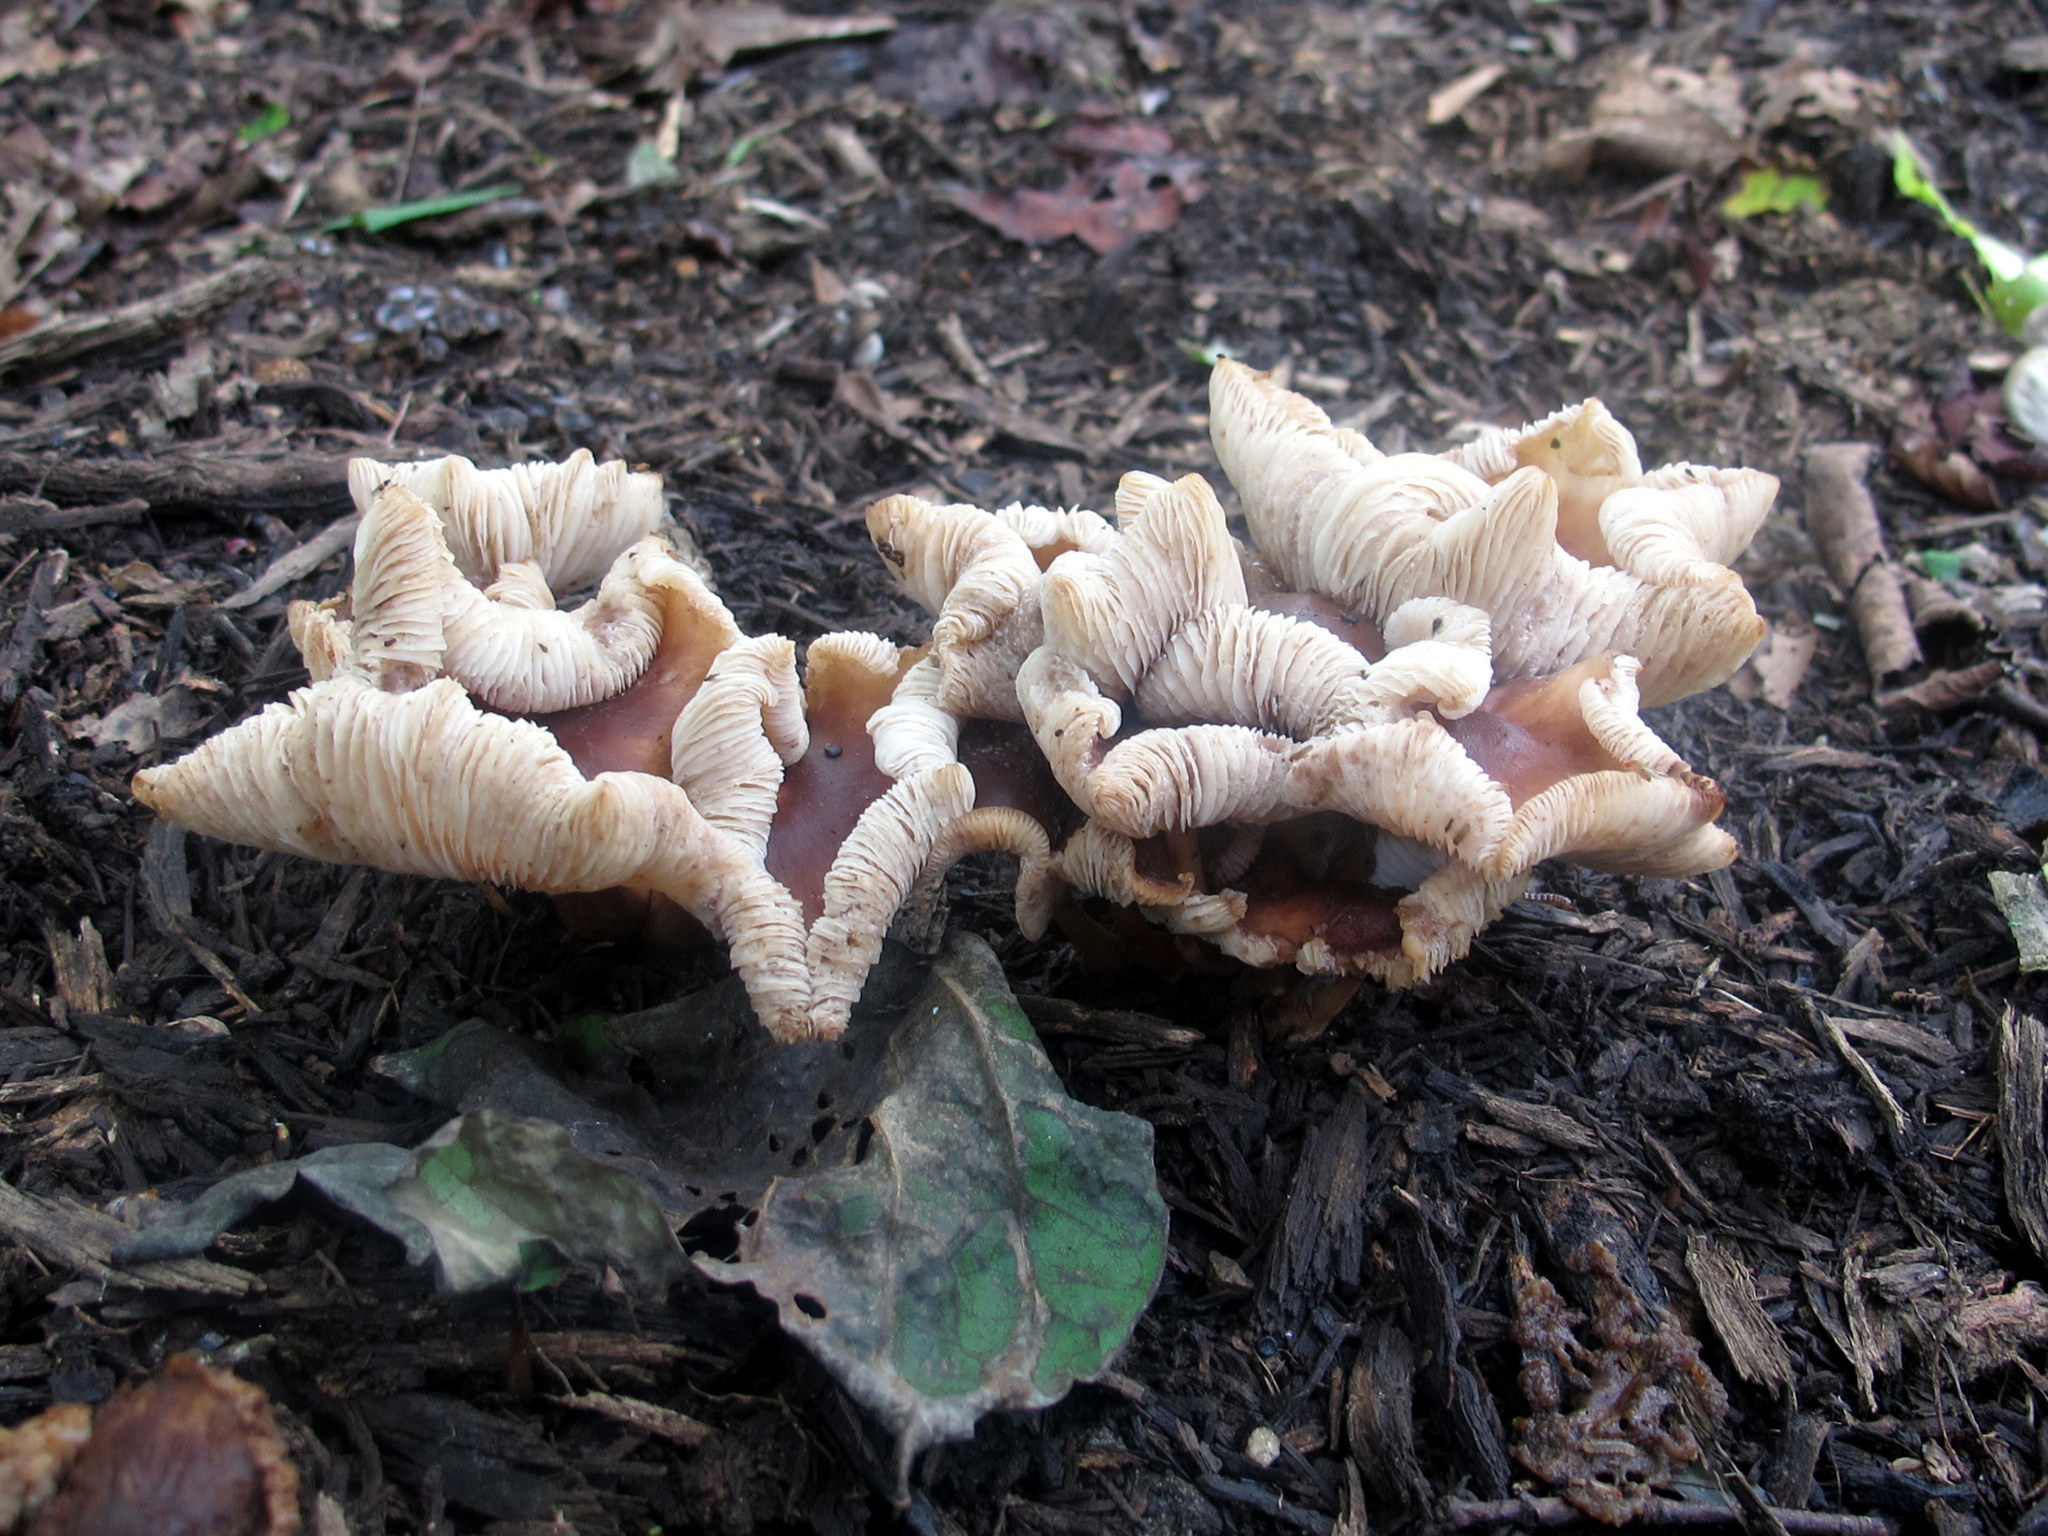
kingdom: Fungi
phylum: Basidiomycota
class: Agaricomycetes
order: Agaricales
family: Omphalotaceae
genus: Collybiopsis
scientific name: Collybiopsis luxurians
